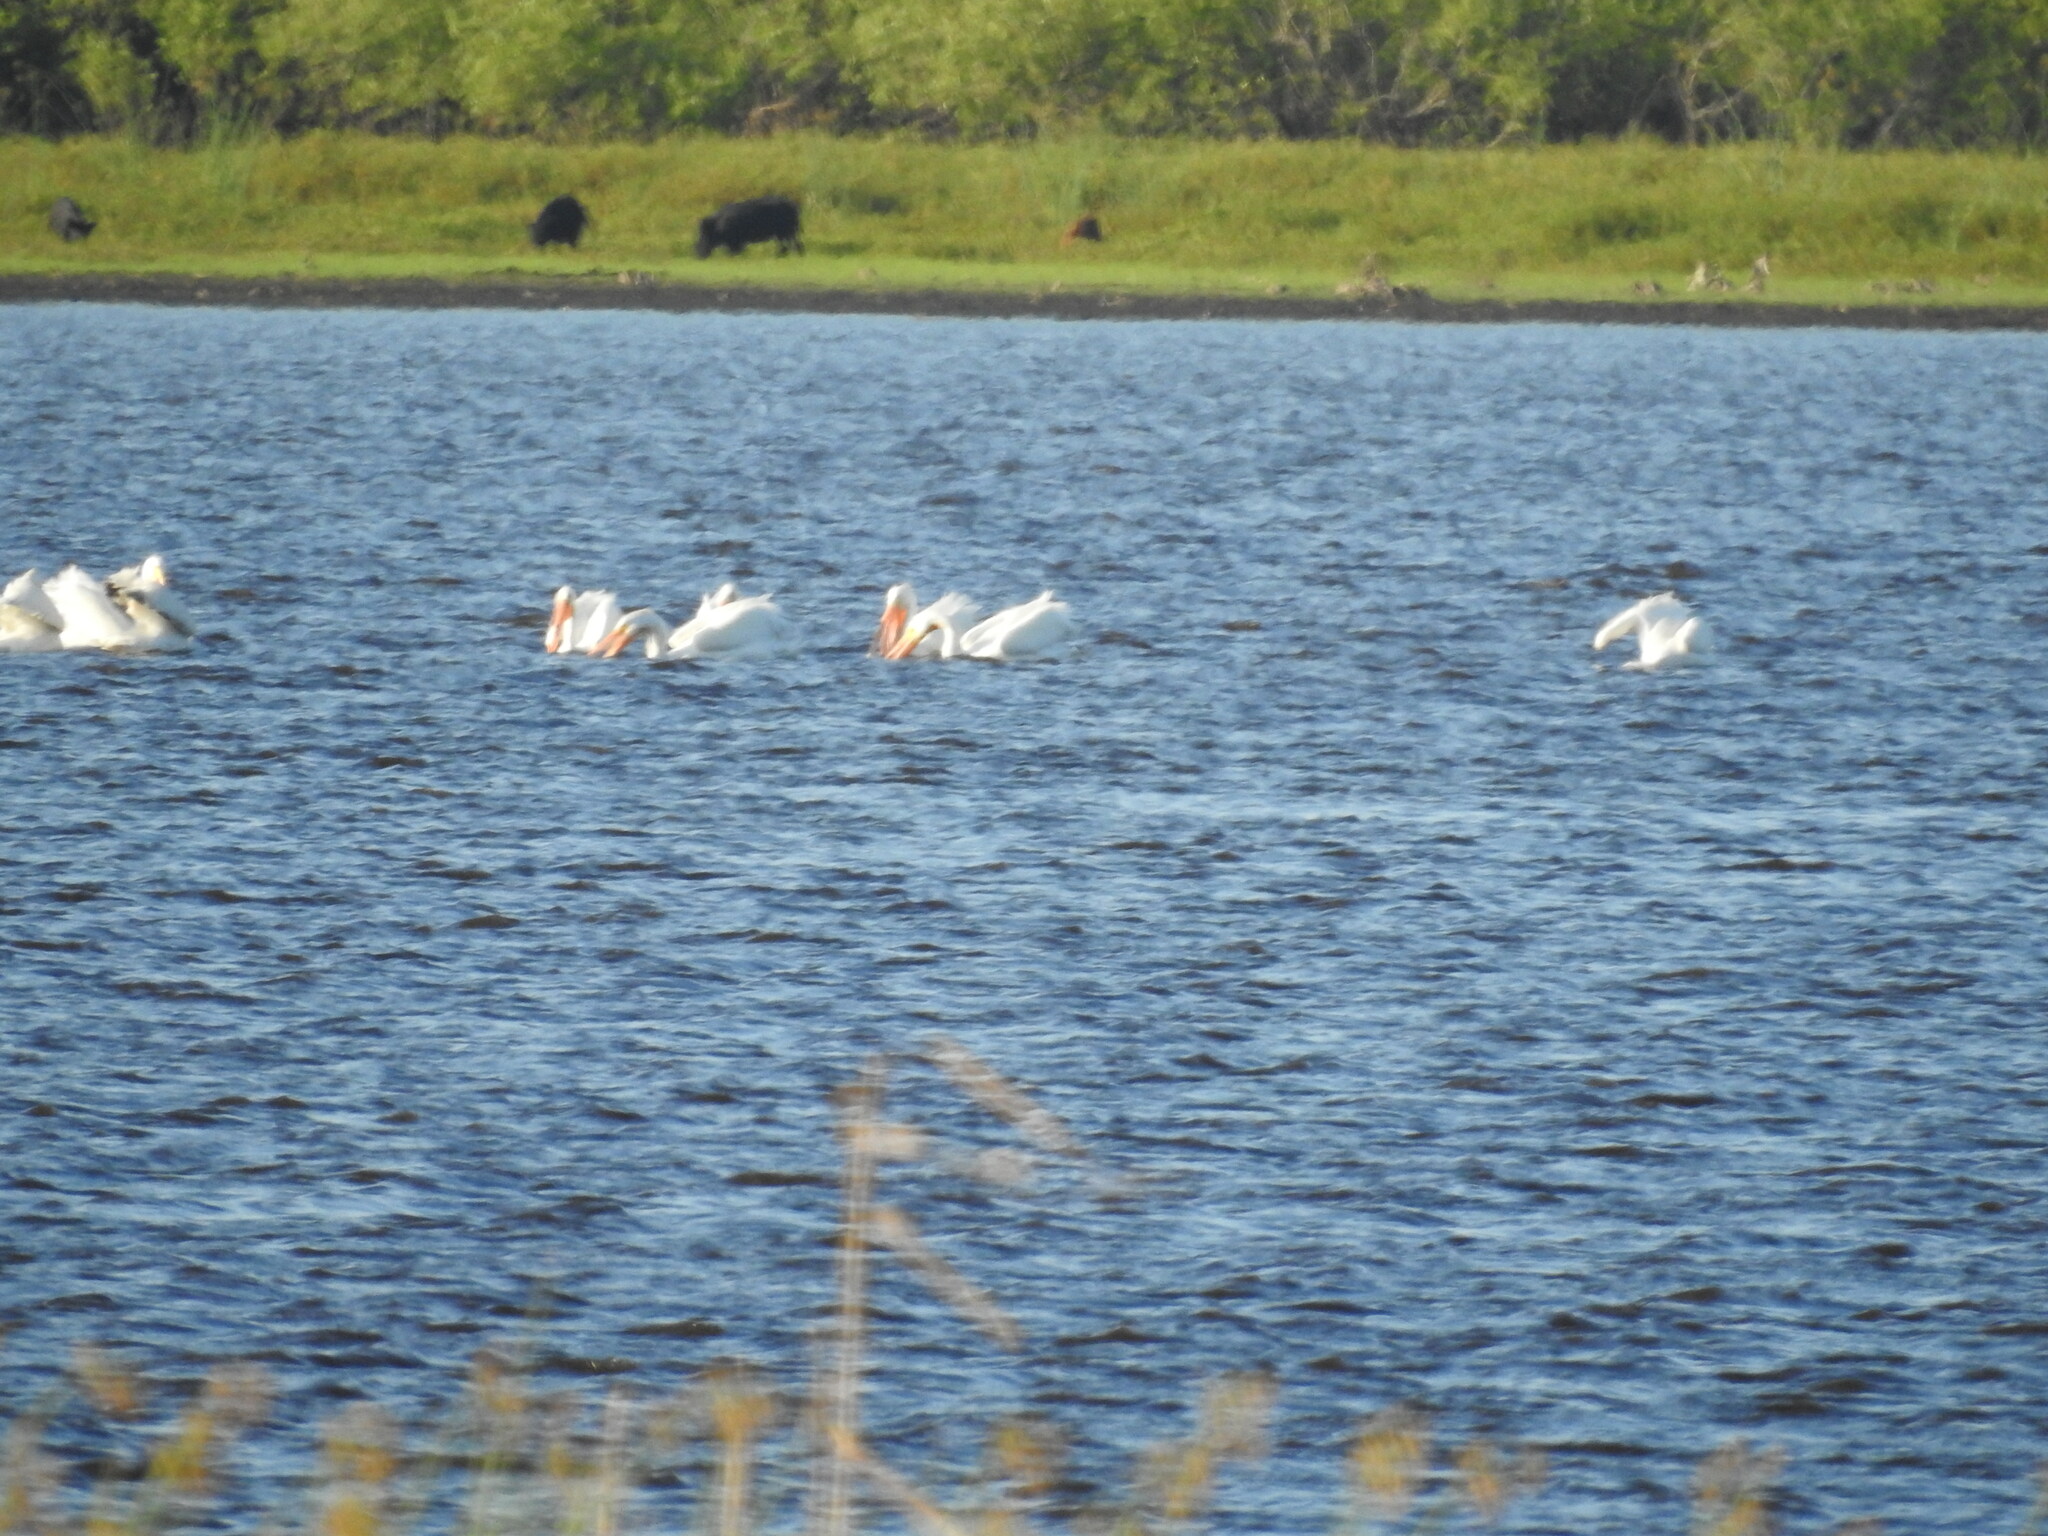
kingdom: Animalia
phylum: Chordata
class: Aves
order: Pelecaniformes
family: Pelecanidae
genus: Pelecanus
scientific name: Pelecanus erythrorhynchos
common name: American white pelican
